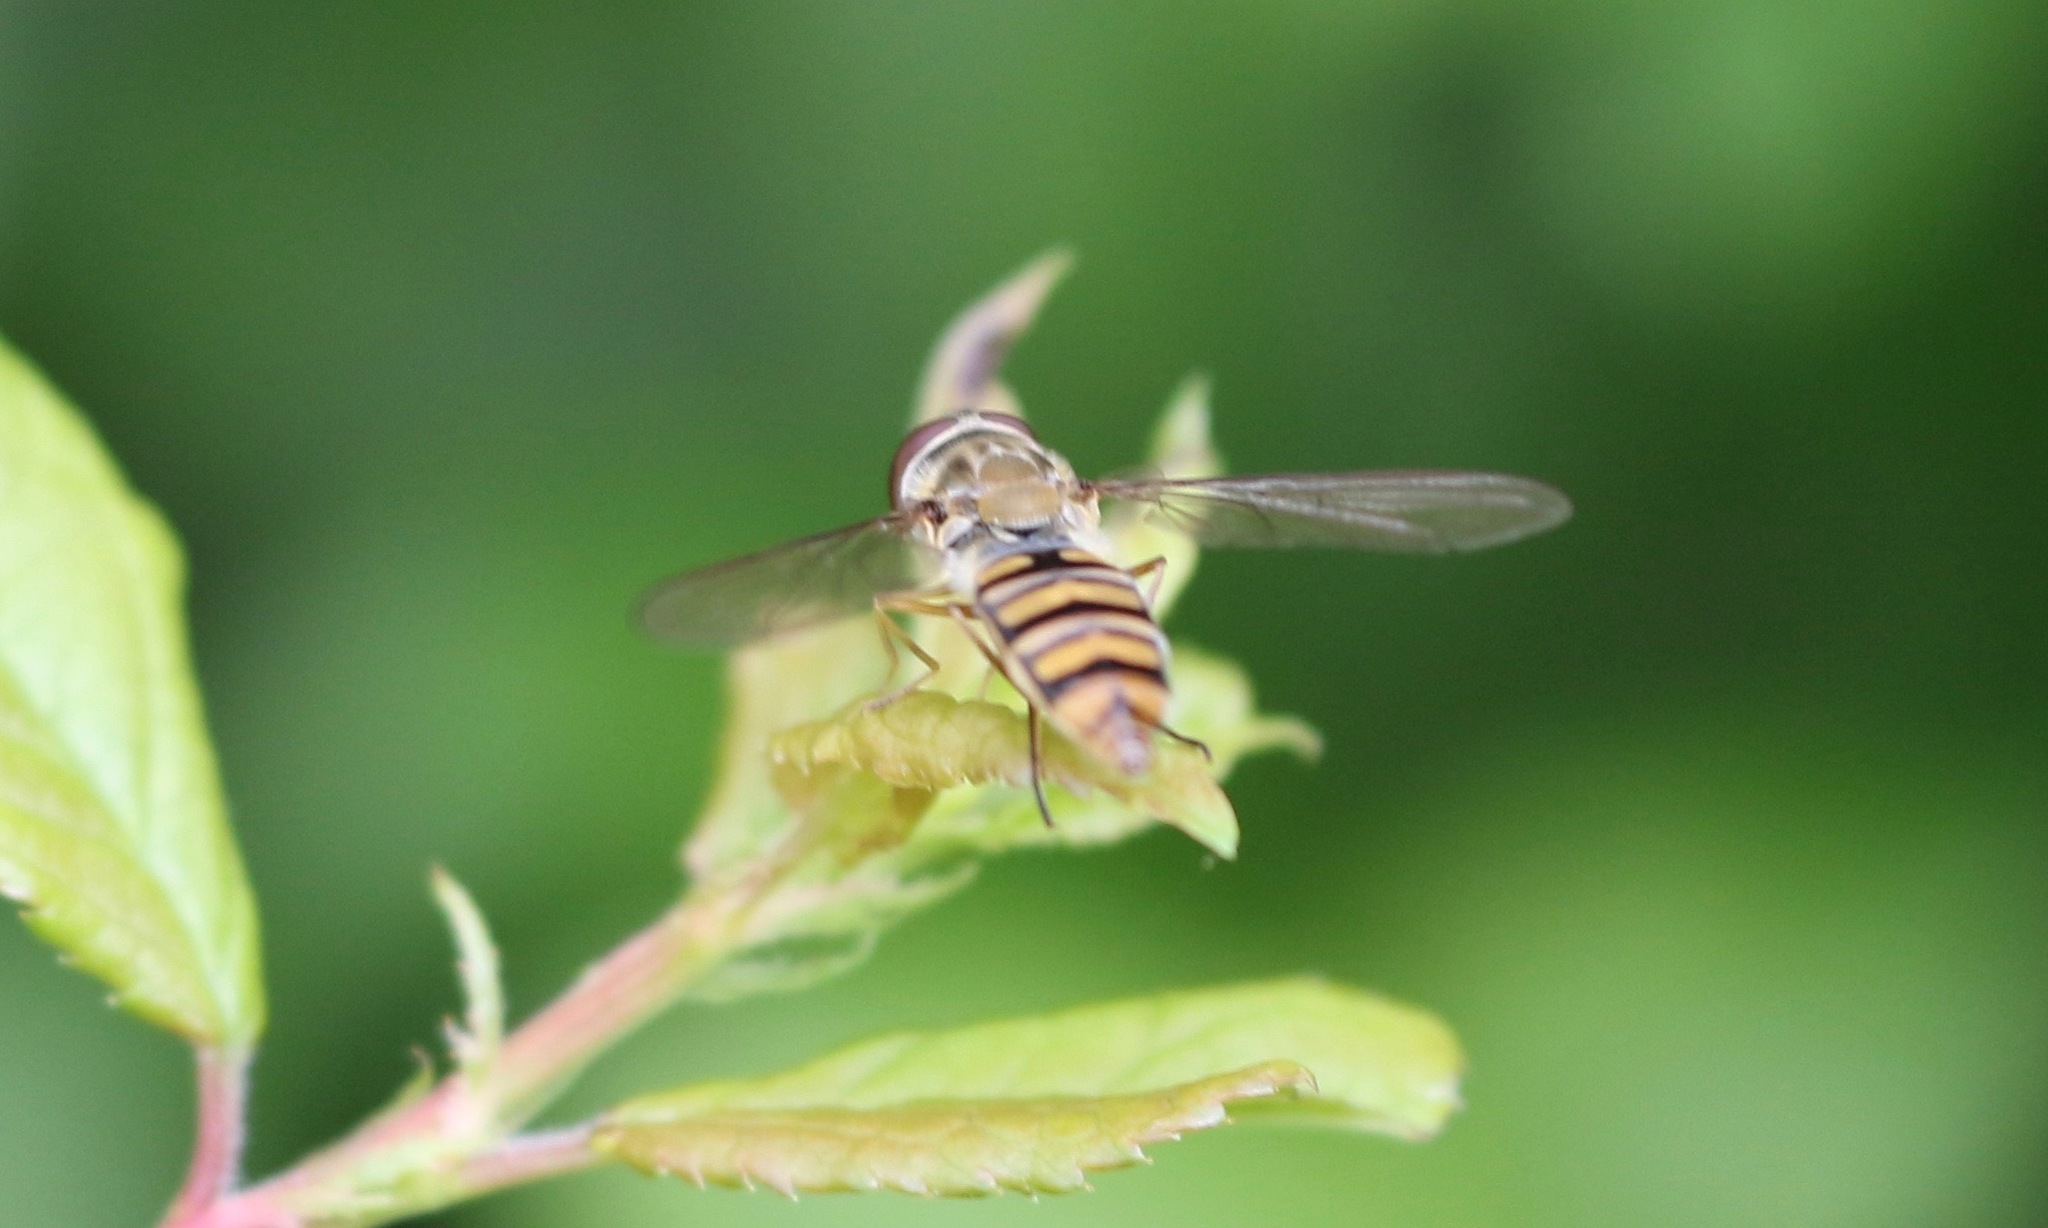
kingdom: Animalia
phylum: Arthropoda
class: Insecta
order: Diptera
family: Syrphidae
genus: Episyrphus
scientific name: Episyrphus balteatus
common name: Marmalade hoverfly
